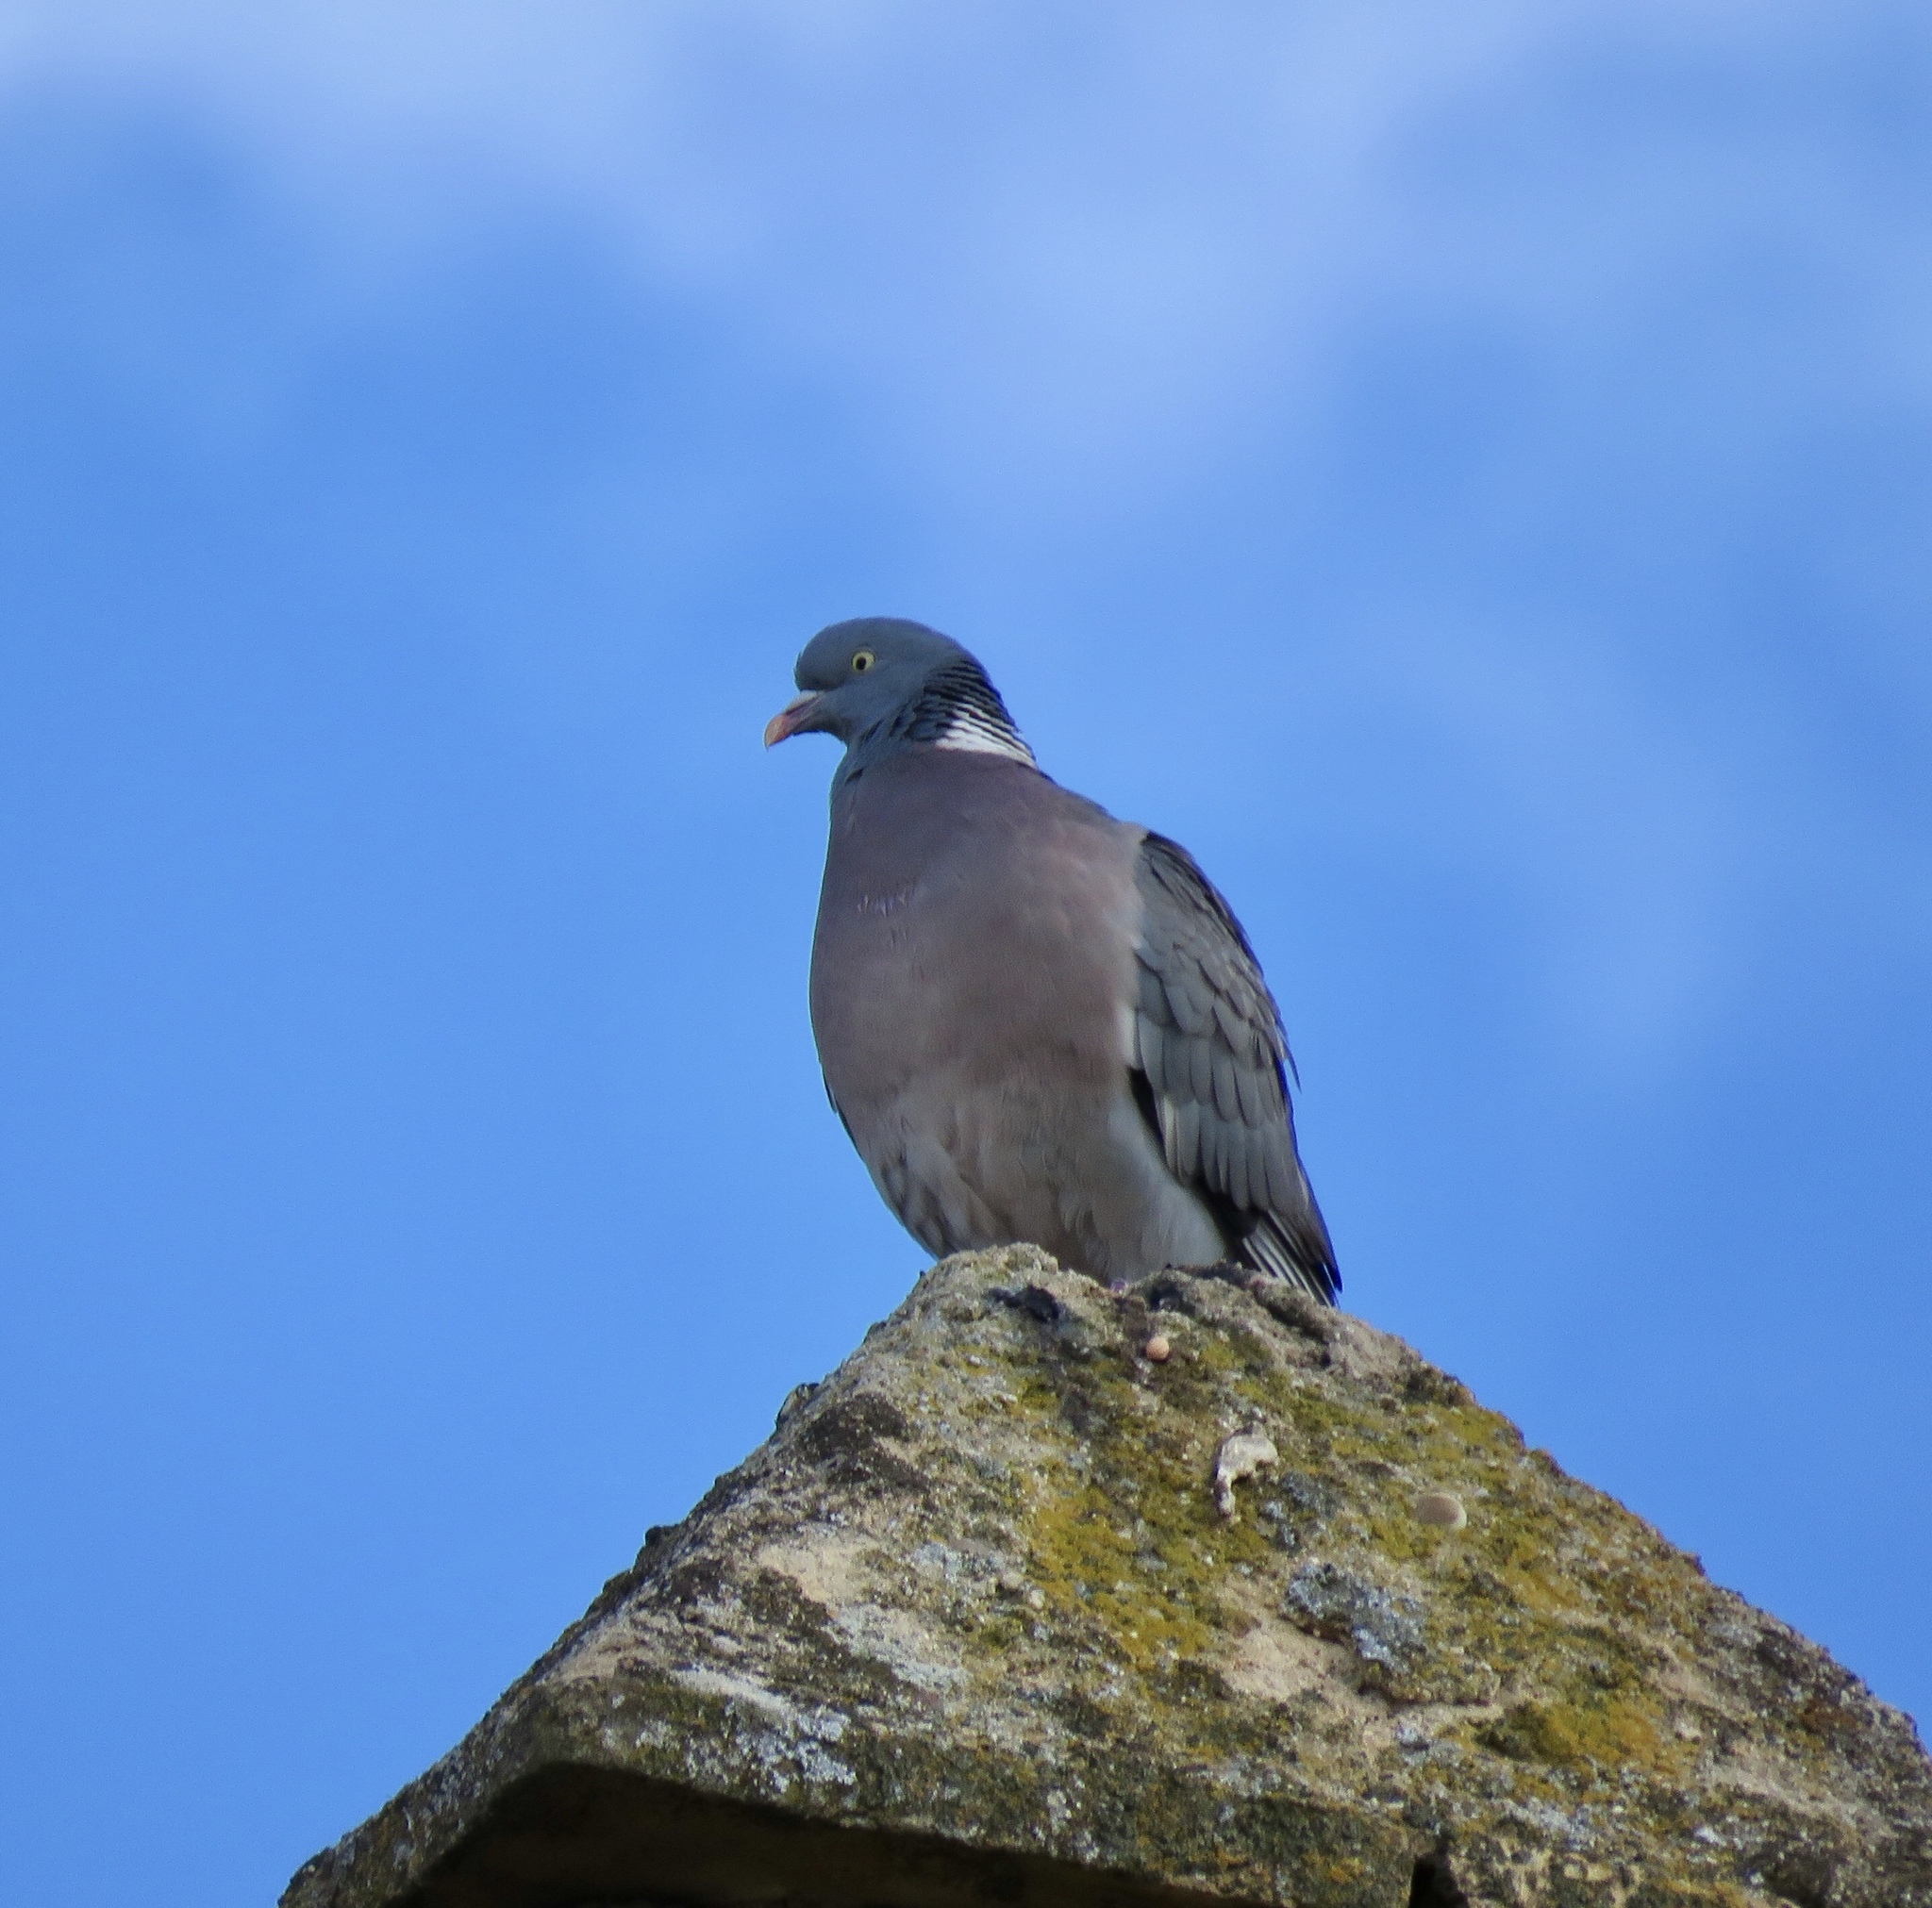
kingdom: Animalia
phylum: Chordata
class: Aves
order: Columbiformes
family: Columbidae
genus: Columba
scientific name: Columba palumbus
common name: Common wood pigeon
